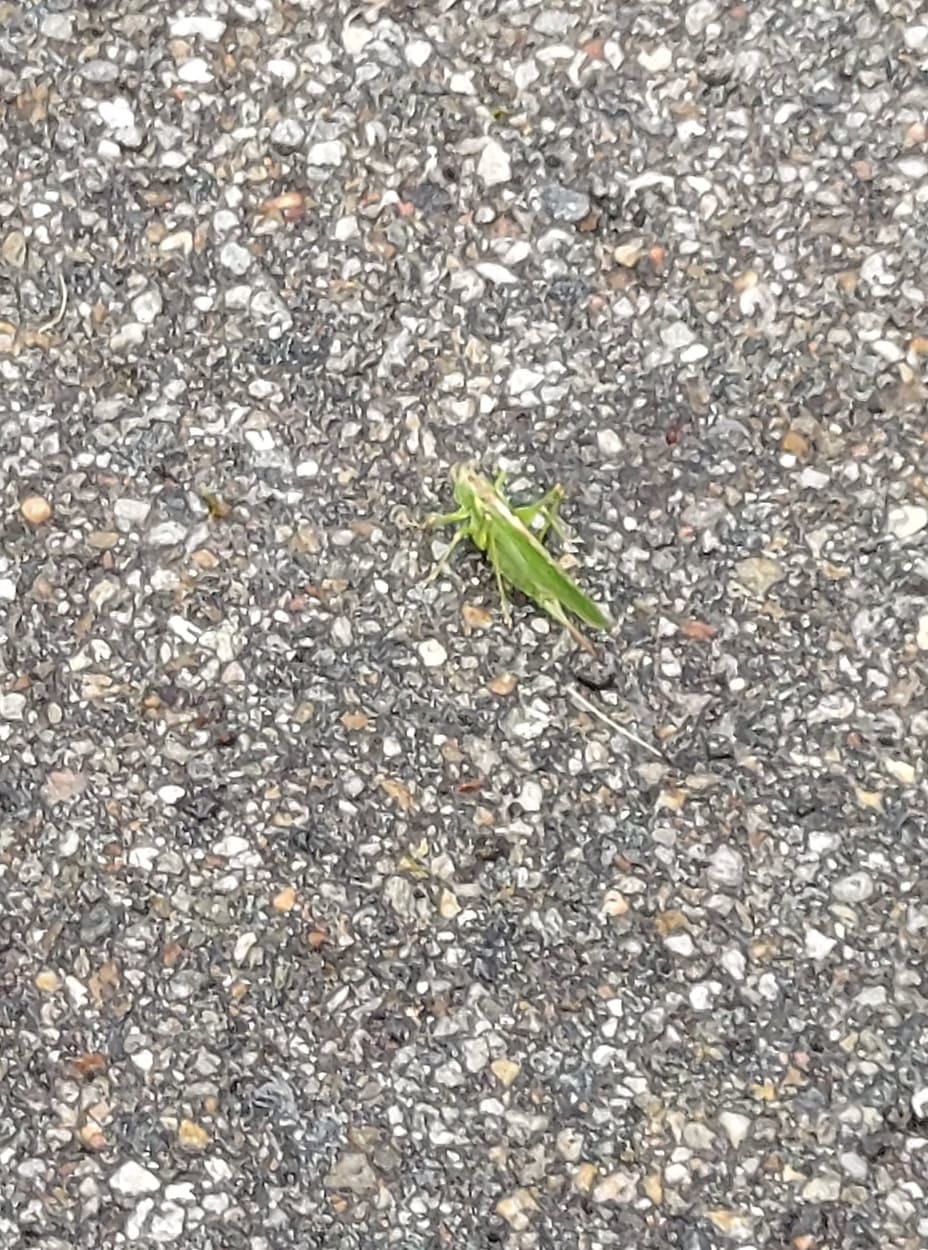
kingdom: Animalia
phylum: Arthropoda
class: Insecta
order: Orthoptera
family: Tettigoniidae
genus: Tettigonia
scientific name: Tettigonia viridissima
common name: Great green bush-cricket
